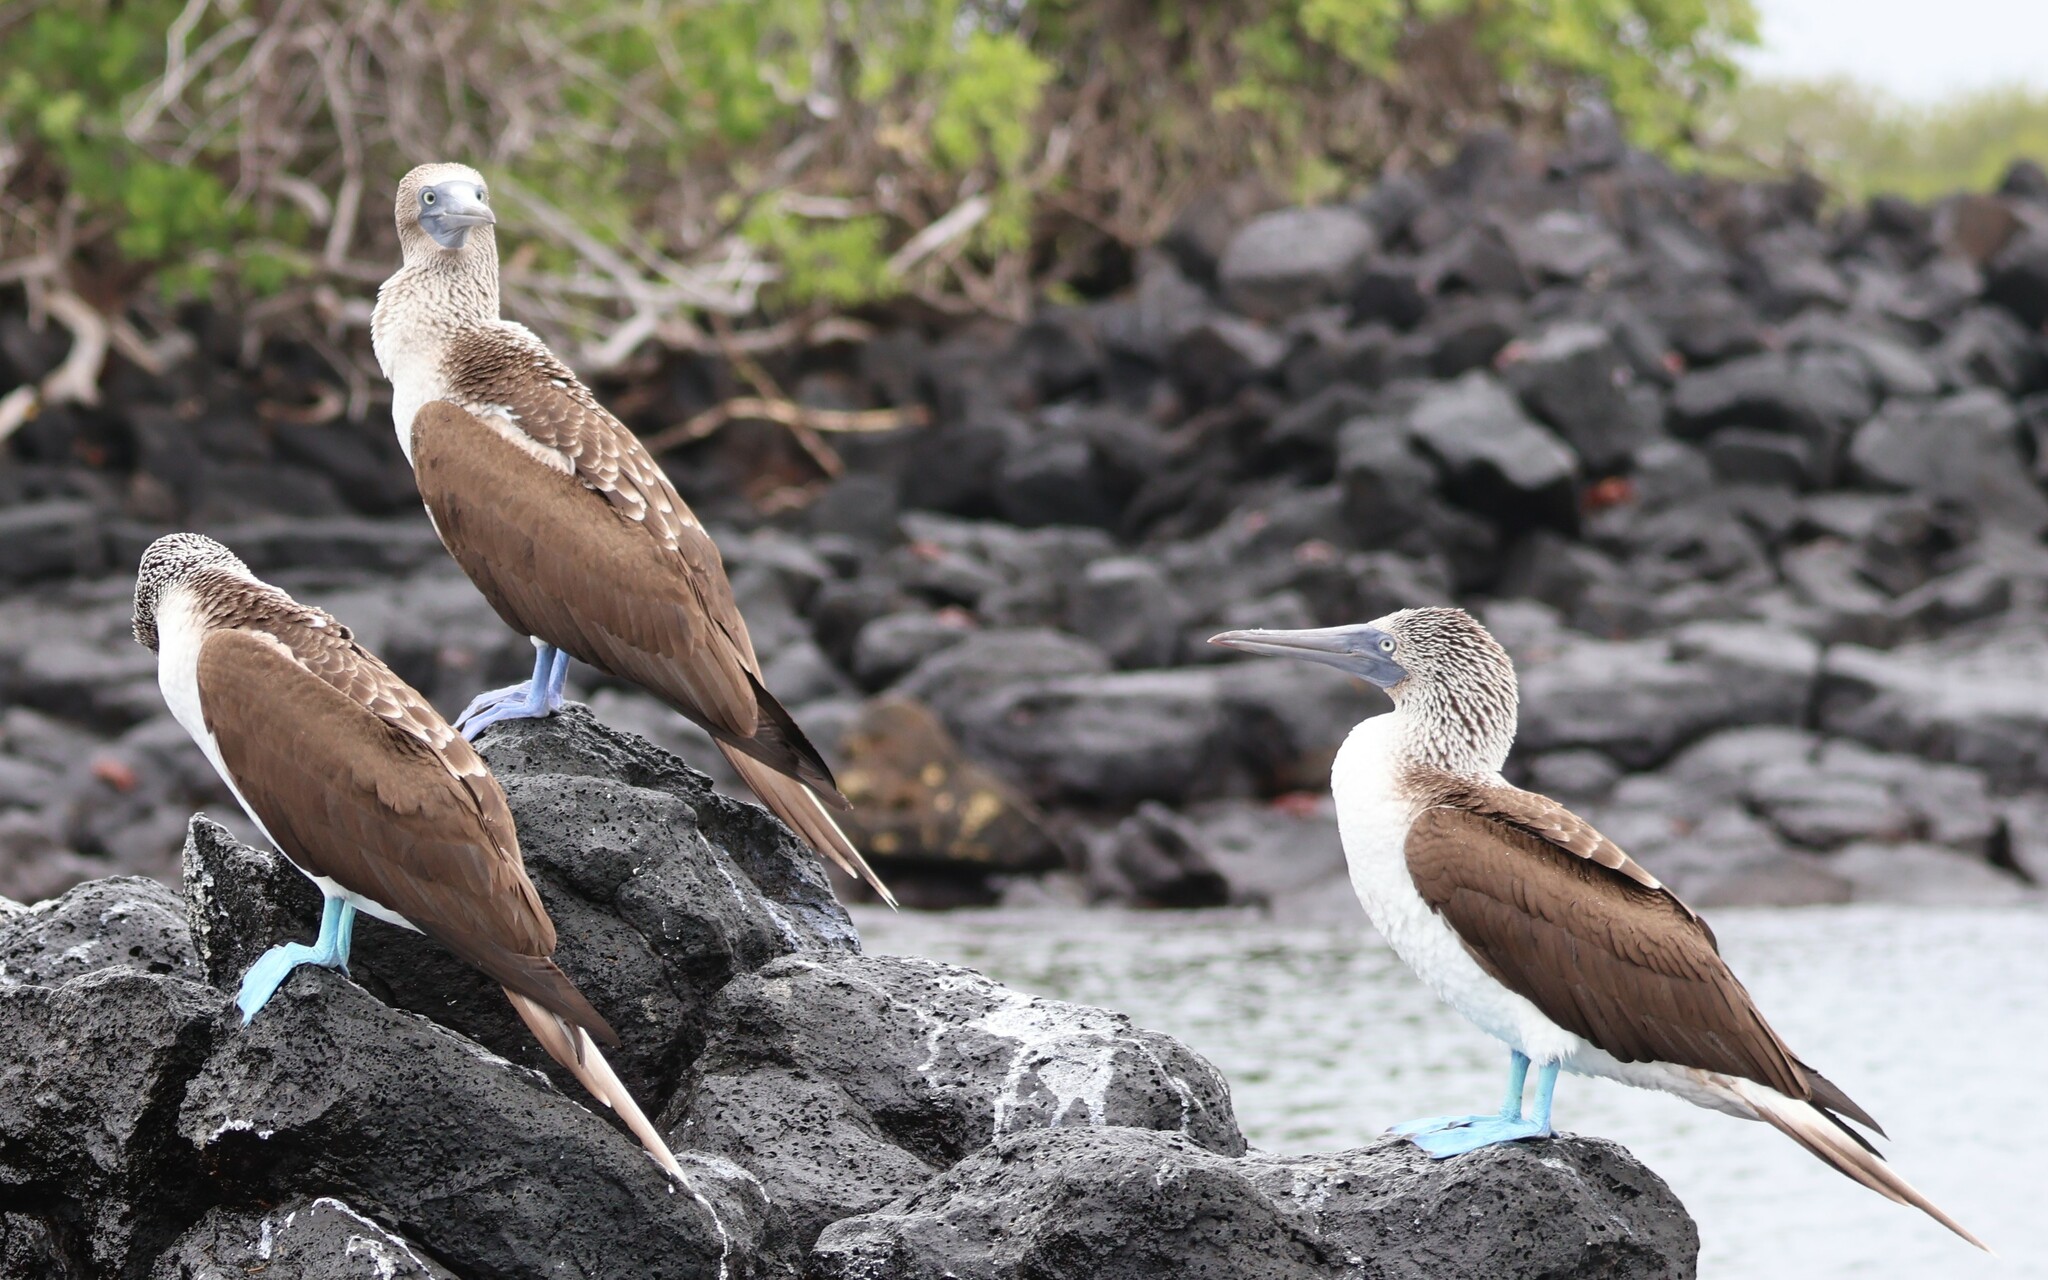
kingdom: Animalia
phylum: Chordata
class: Aves
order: Suliformes
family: Sulidae
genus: Sula
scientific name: Sula nebouxii
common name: Blue-footed booby
